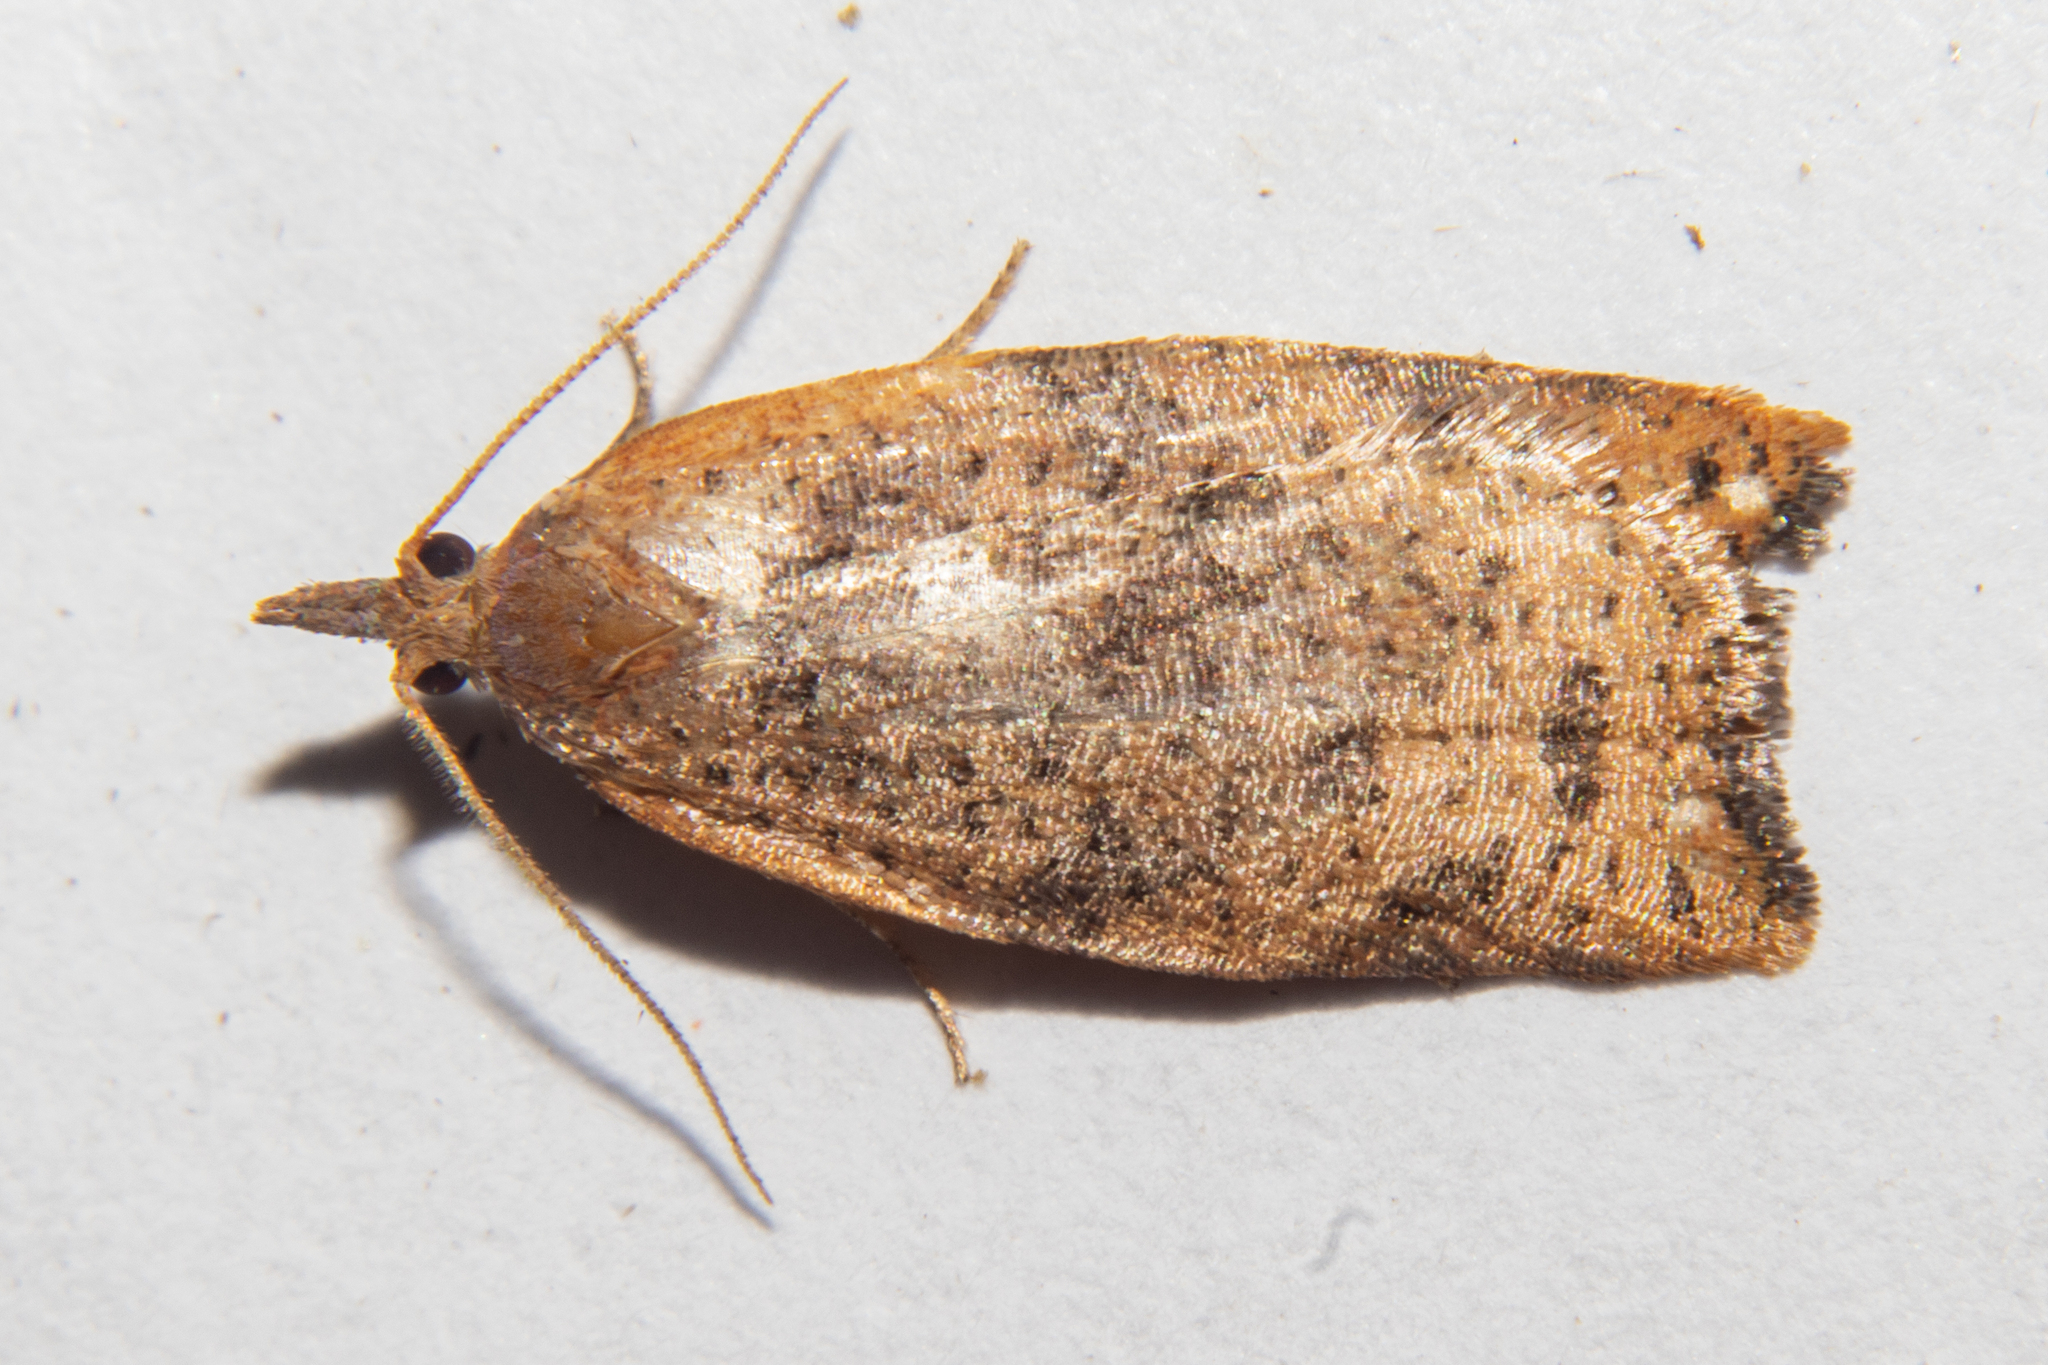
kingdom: Animalia
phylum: Arthropoda
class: Insecta
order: Lepidoptera
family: Tortricidae
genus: Apoctena
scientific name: Apoctena flavescens
